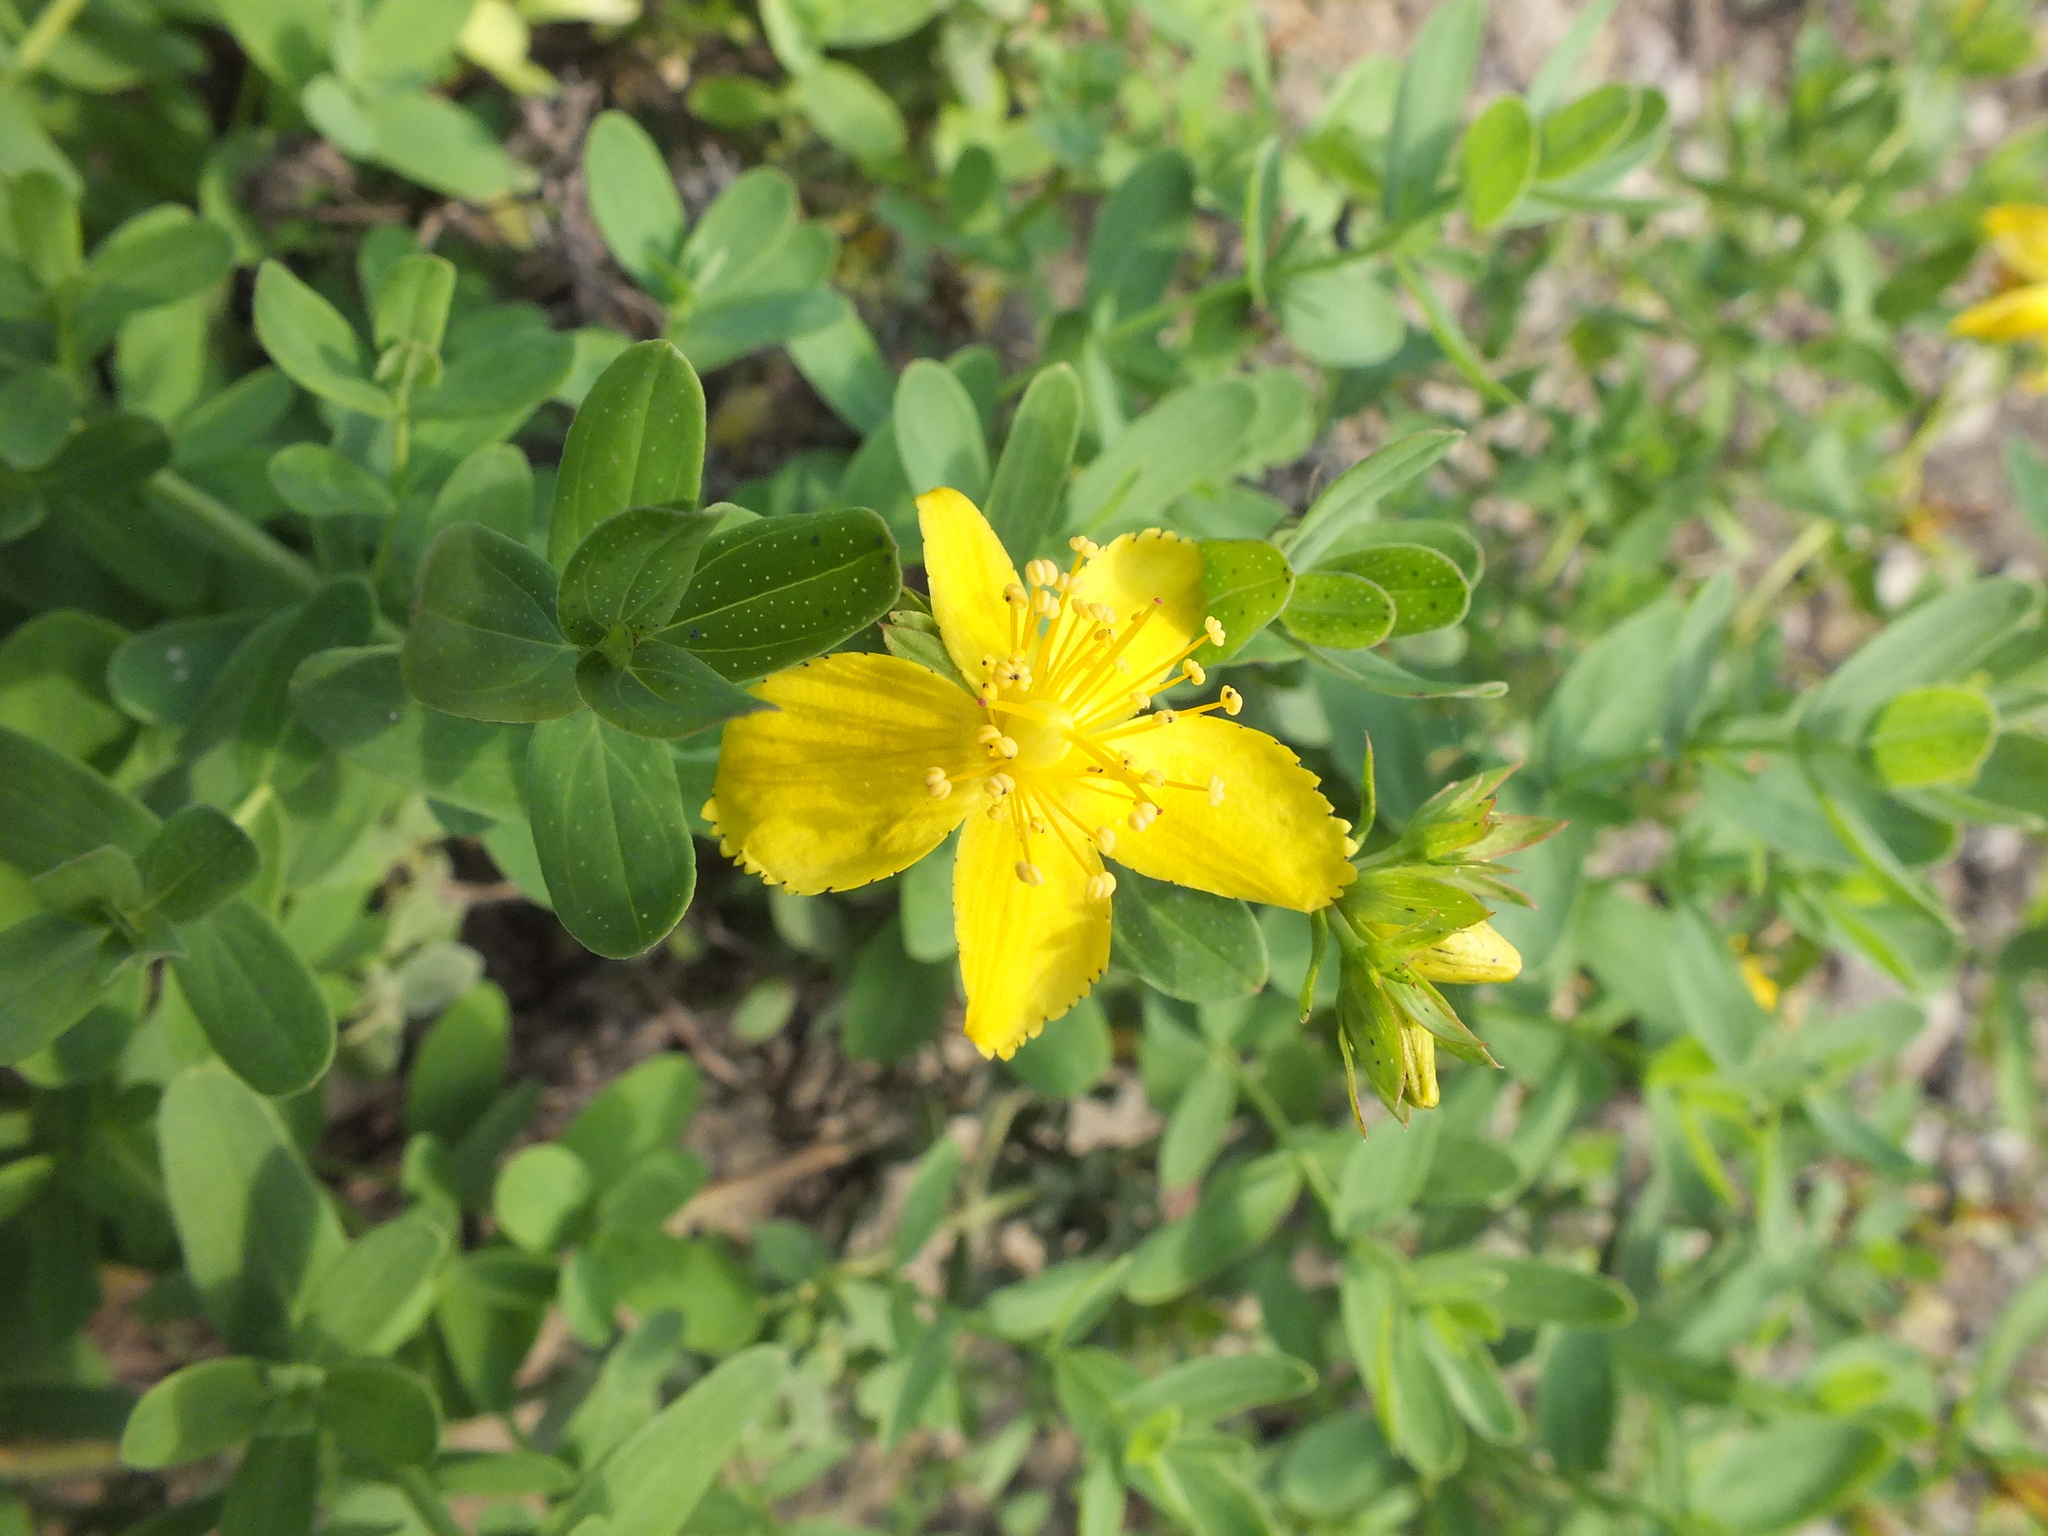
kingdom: Plantae
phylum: Tracheophyta
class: Magnoliopsida
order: Malpighiales
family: Hypericaceae
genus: Hypericum
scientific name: Hypericum perforatum
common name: Common st. johnswort
